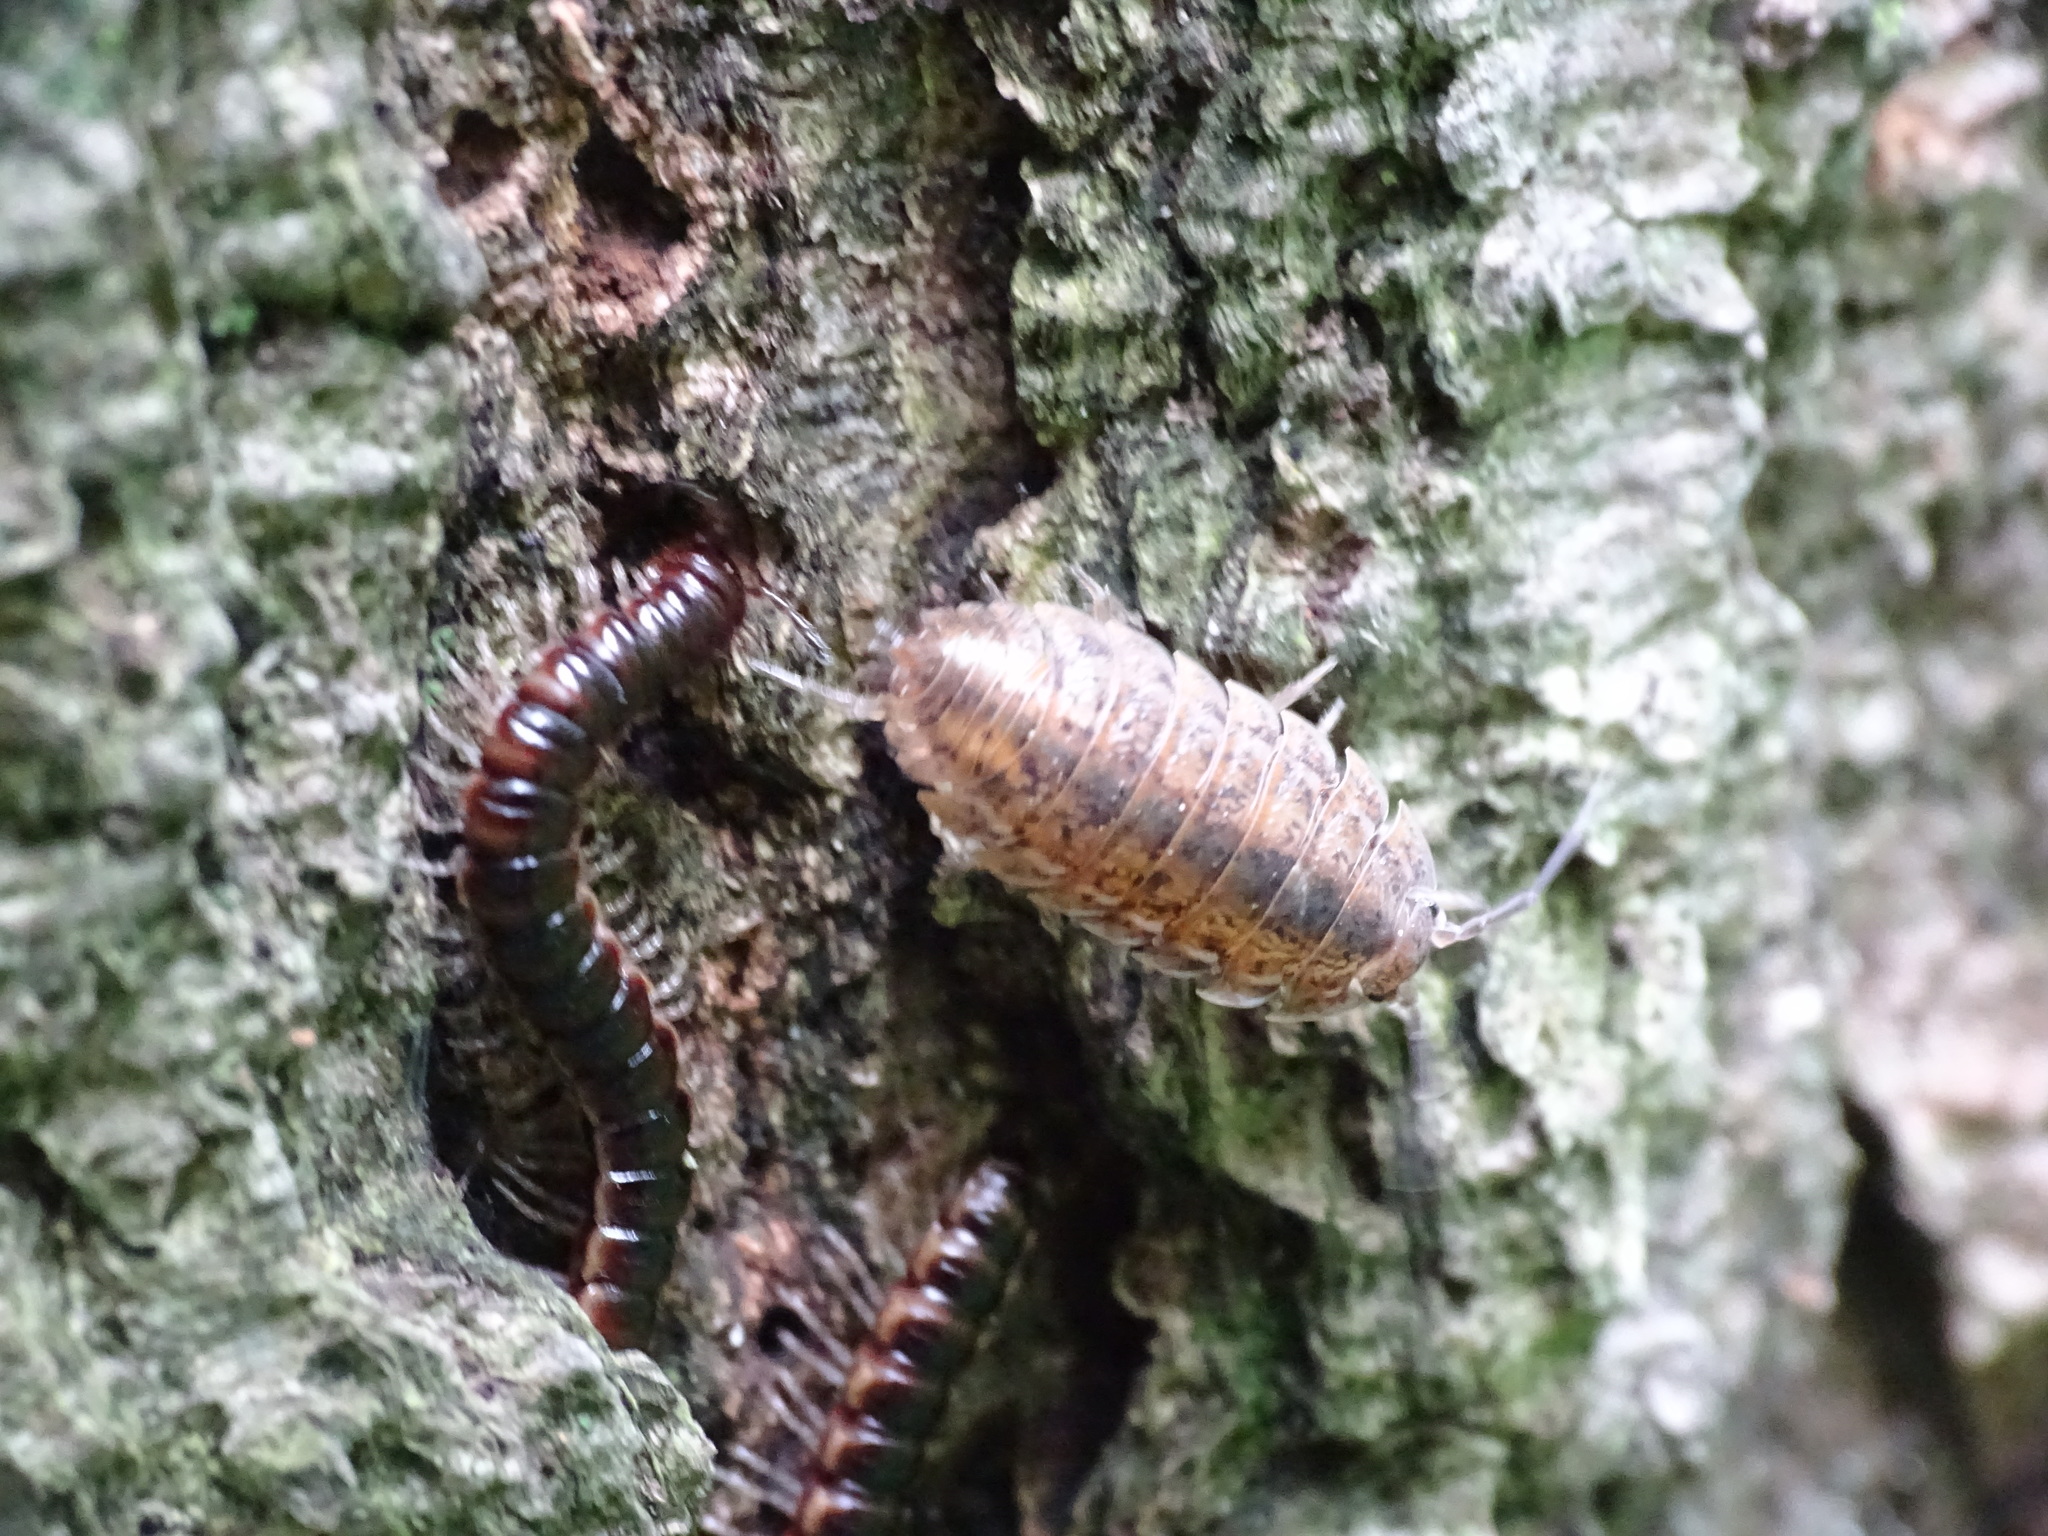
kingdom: Animalia
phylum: Arthropoda
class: Malacostraca
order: Isopoda
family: Trachelipodidae
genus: Trachelipus
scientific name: Trachelipus rathkii
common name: Isopod
